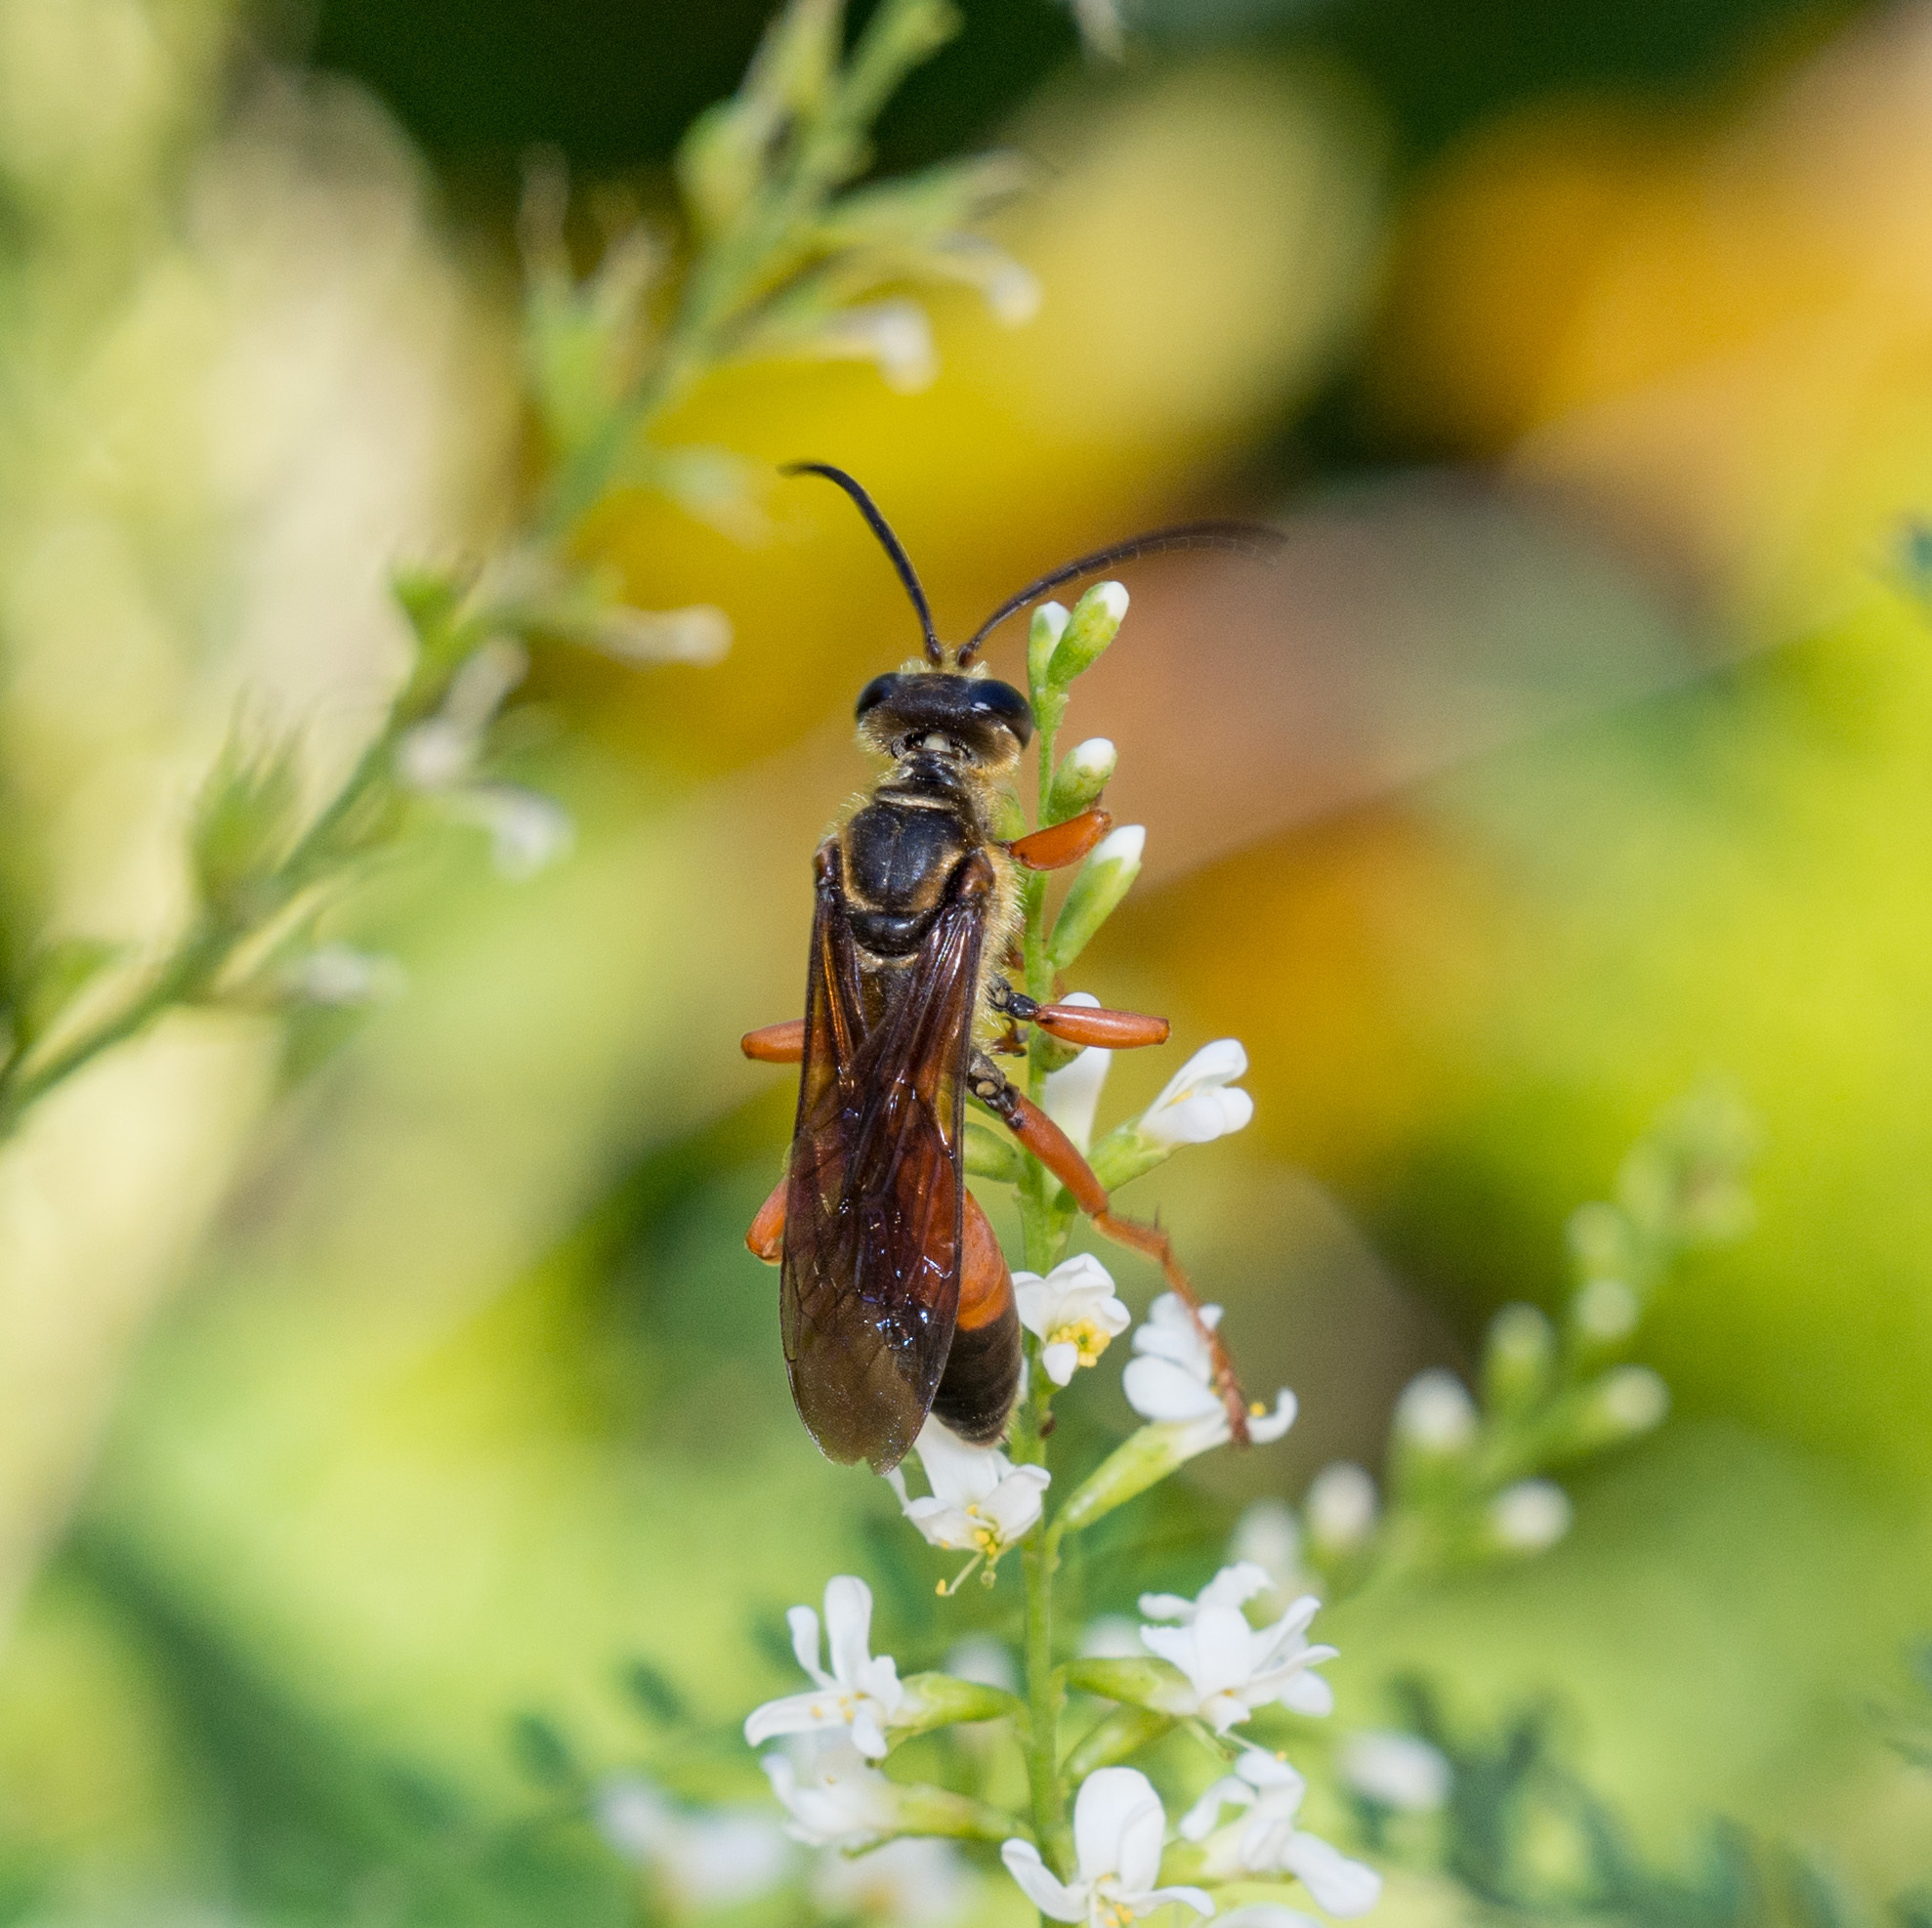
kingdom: Animalia
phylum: Arthropoda
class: Insecta
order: Hymenoptera
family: Sphecidae
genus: Sphex
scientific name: Sphex ichneumoneus
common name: Great golden digger wasp
